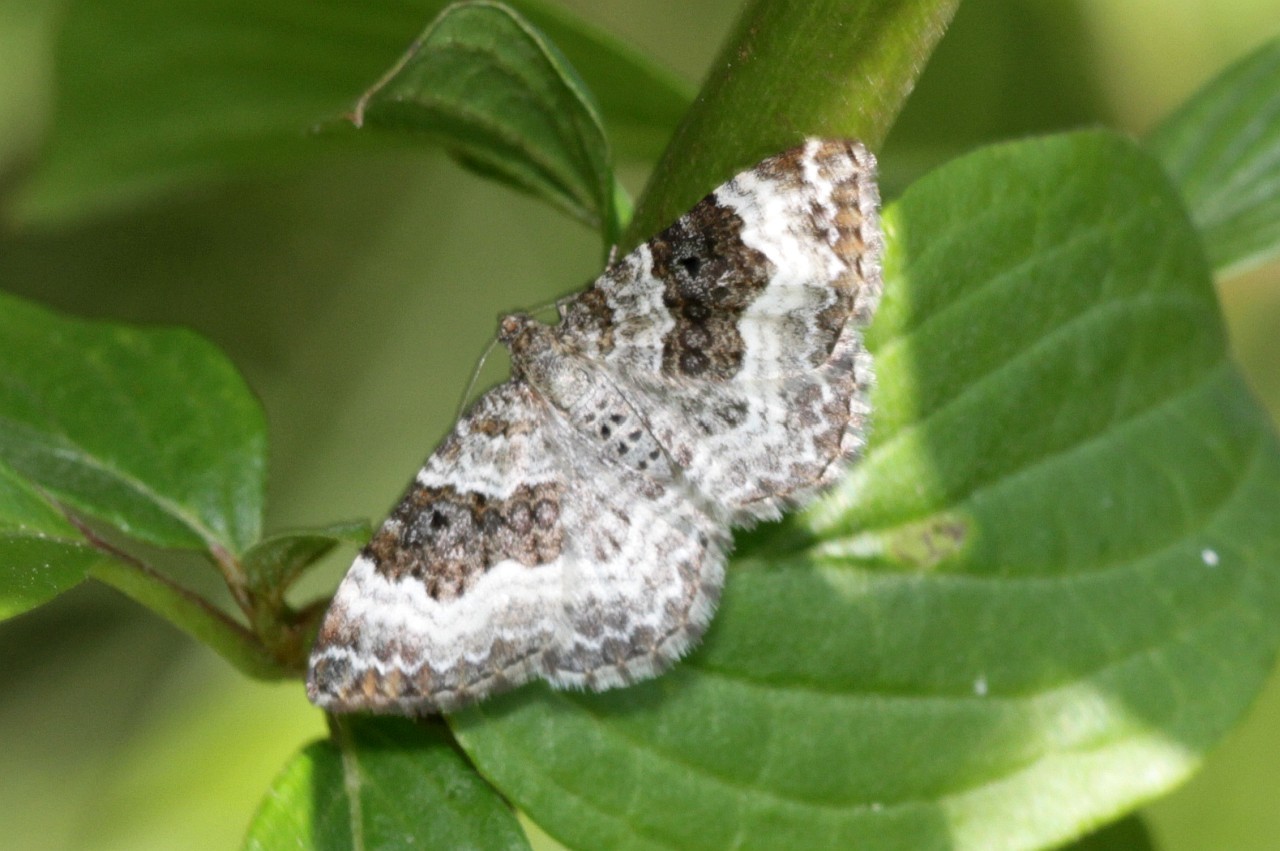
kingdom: Animalia
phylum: Arthropoda
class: Insecta
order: Lepidoptera
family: Geometridae
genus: Epirrhoe
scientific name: Epirrhoe alternata
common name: Common carpet
